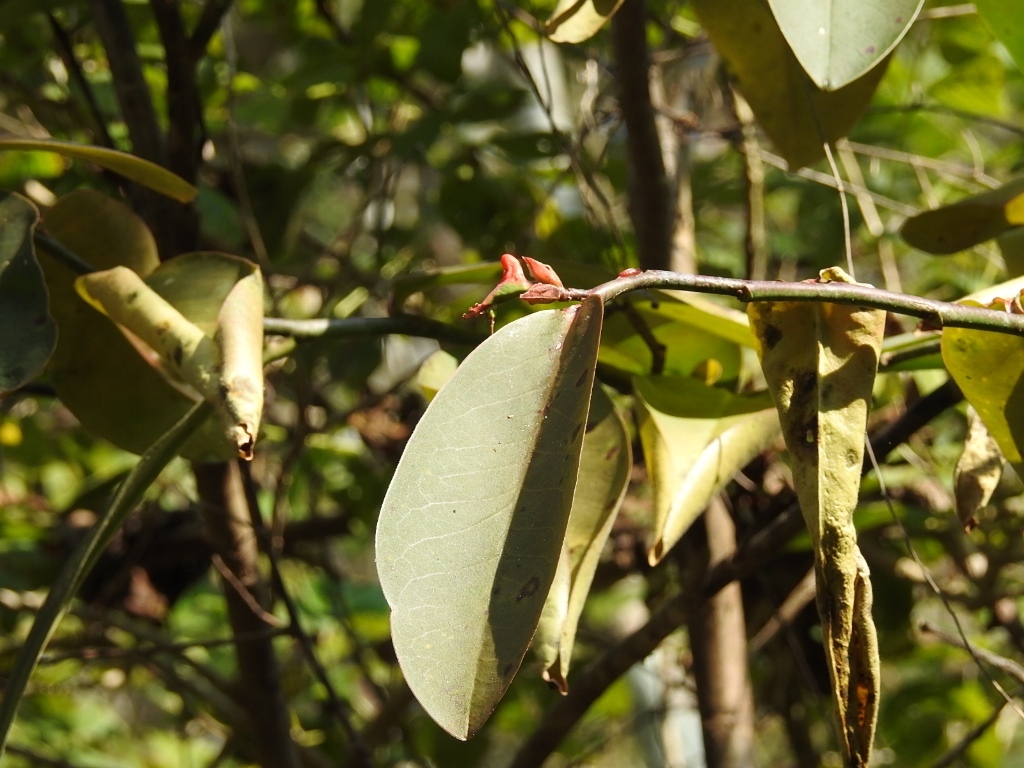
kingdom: Plantae
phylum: Tracheophyta
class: Magnoliopsida
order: Malpighiales
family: Euphorbiaceae
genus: Euphorbia
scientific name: Euphorbia calcarata
